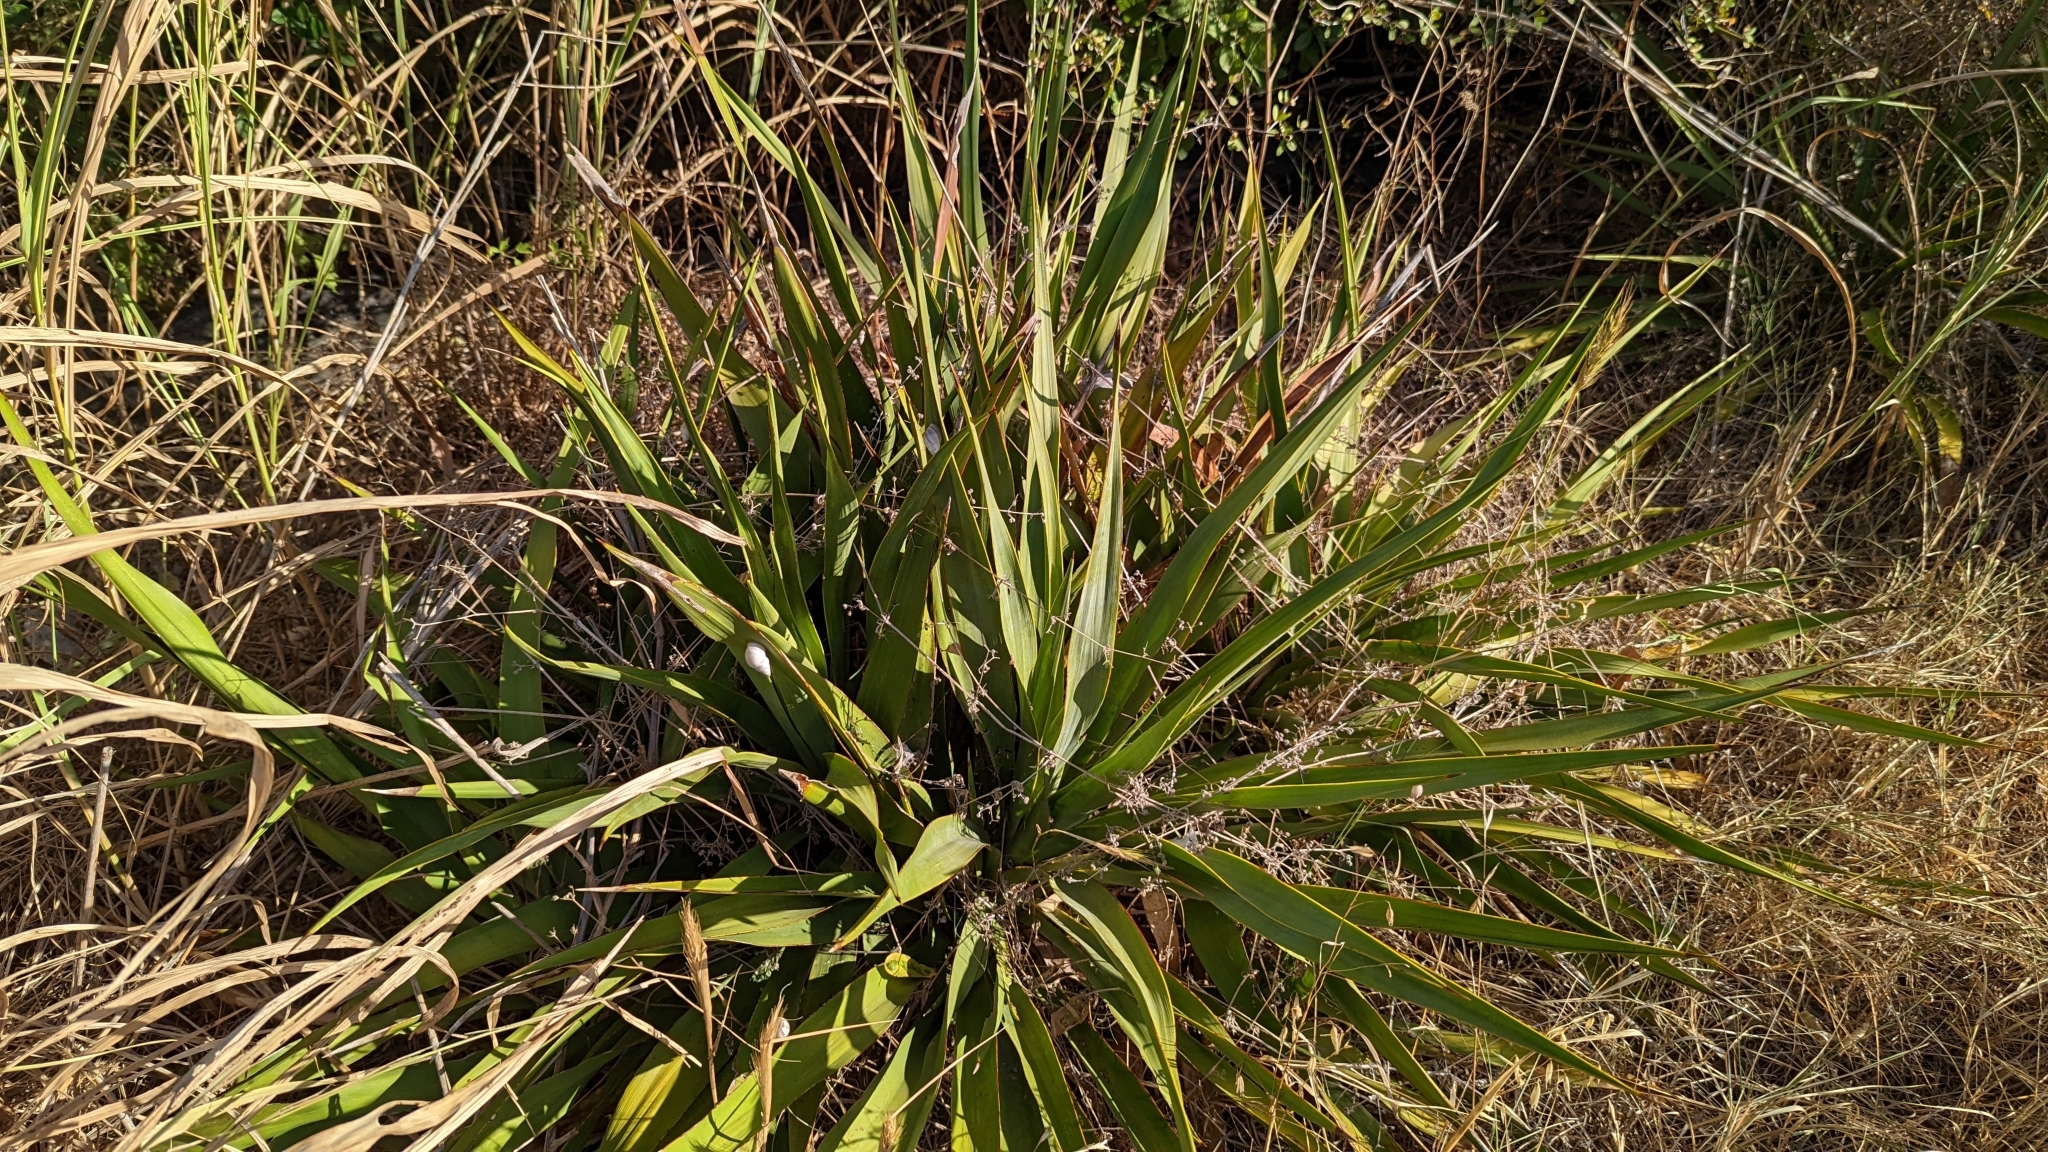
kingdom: Plantae
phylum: Tracheophyta
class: Liliopsida
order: Asparagales
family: Asparagaceae
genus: Yucca
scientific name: Yucca rupicola
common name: Twisted-leaf spanish-dagger
